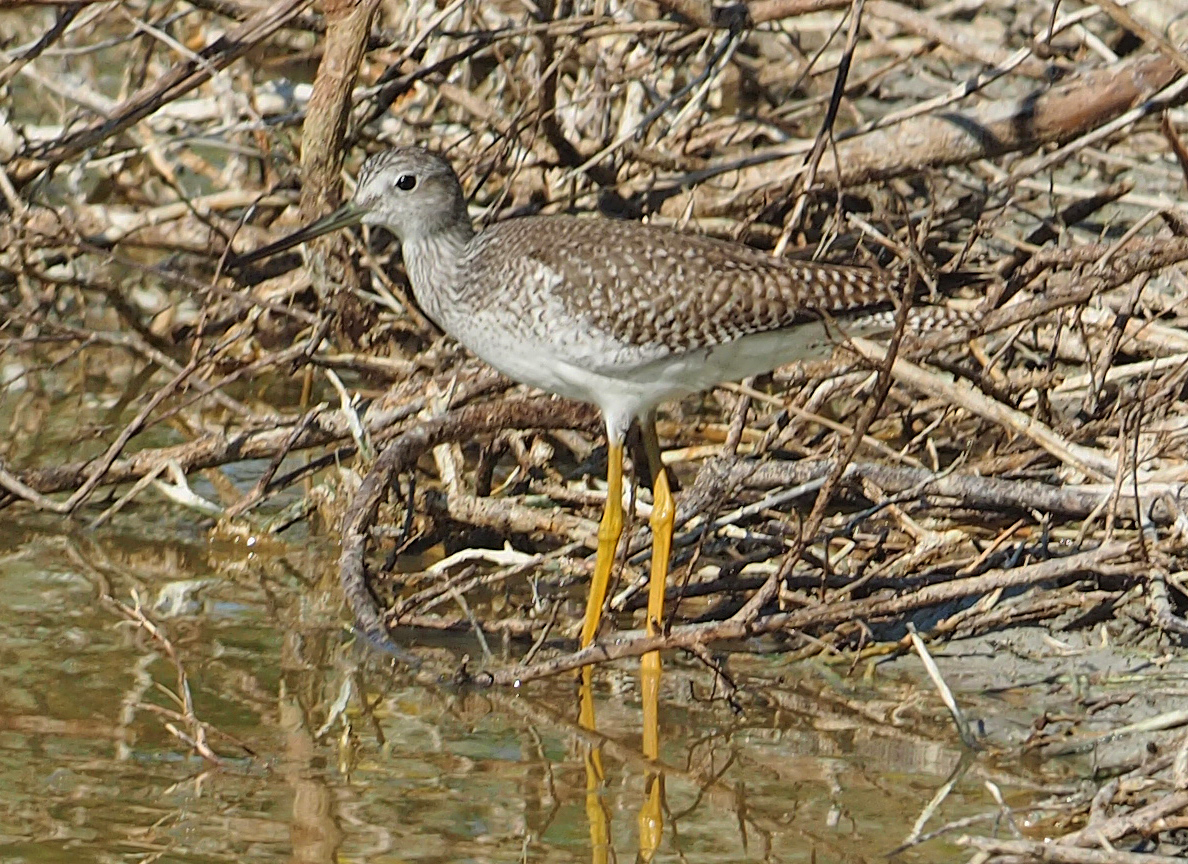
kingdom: Animalia
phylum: Chordata
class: Aves
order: Charadriiformes
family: Scolopacidae
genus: Tringa
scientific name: Tringa melanoleuca
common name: Greater yellowlegs
